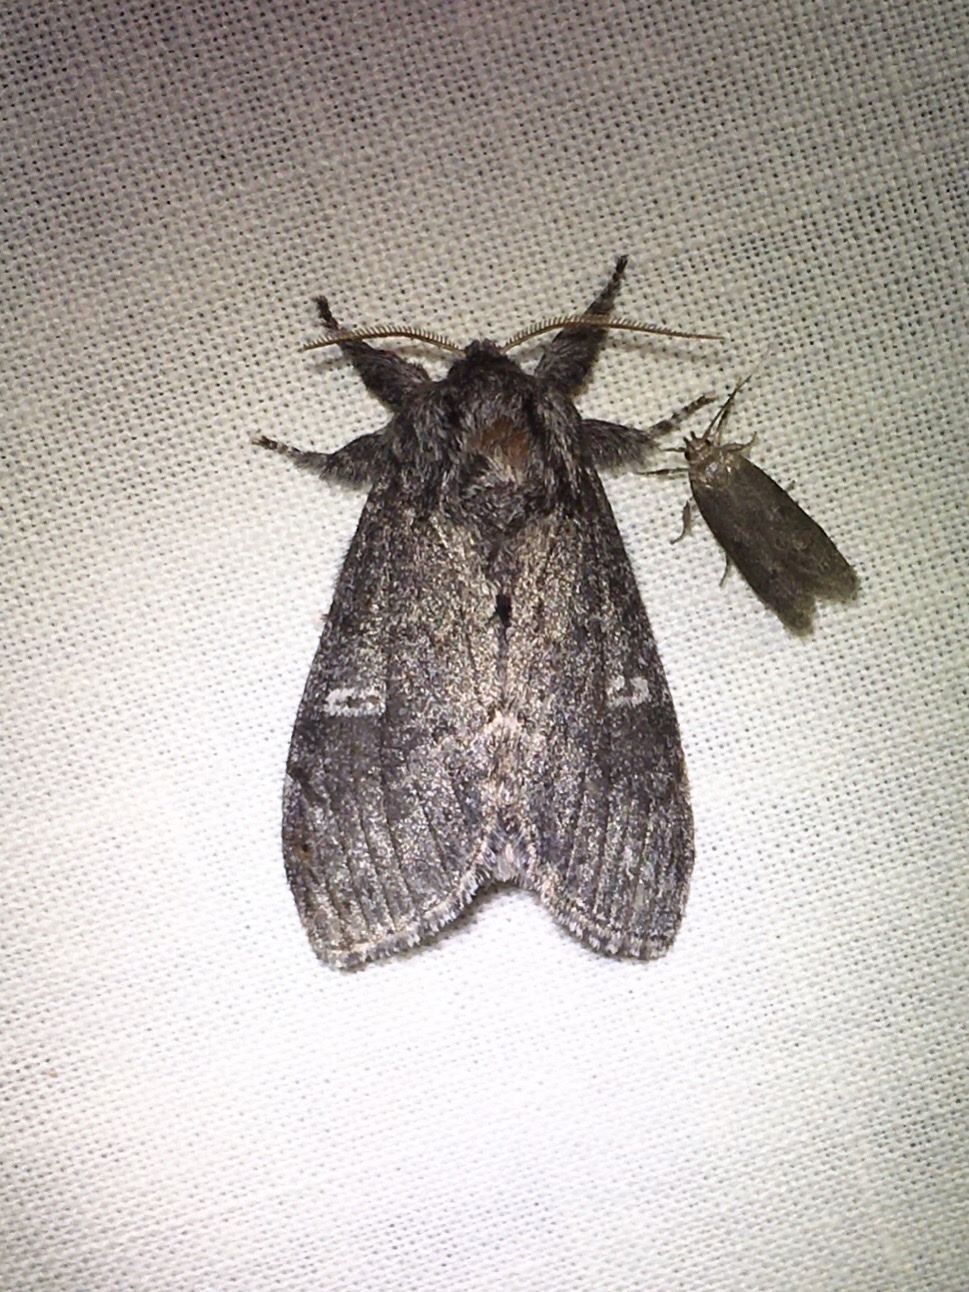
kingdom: Animalia
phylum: Arthropoda
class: Insecta
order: Lepidoptera
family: Notodontidae
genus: Notodonta
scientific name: Notodonta torva
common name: Large dark prominent
